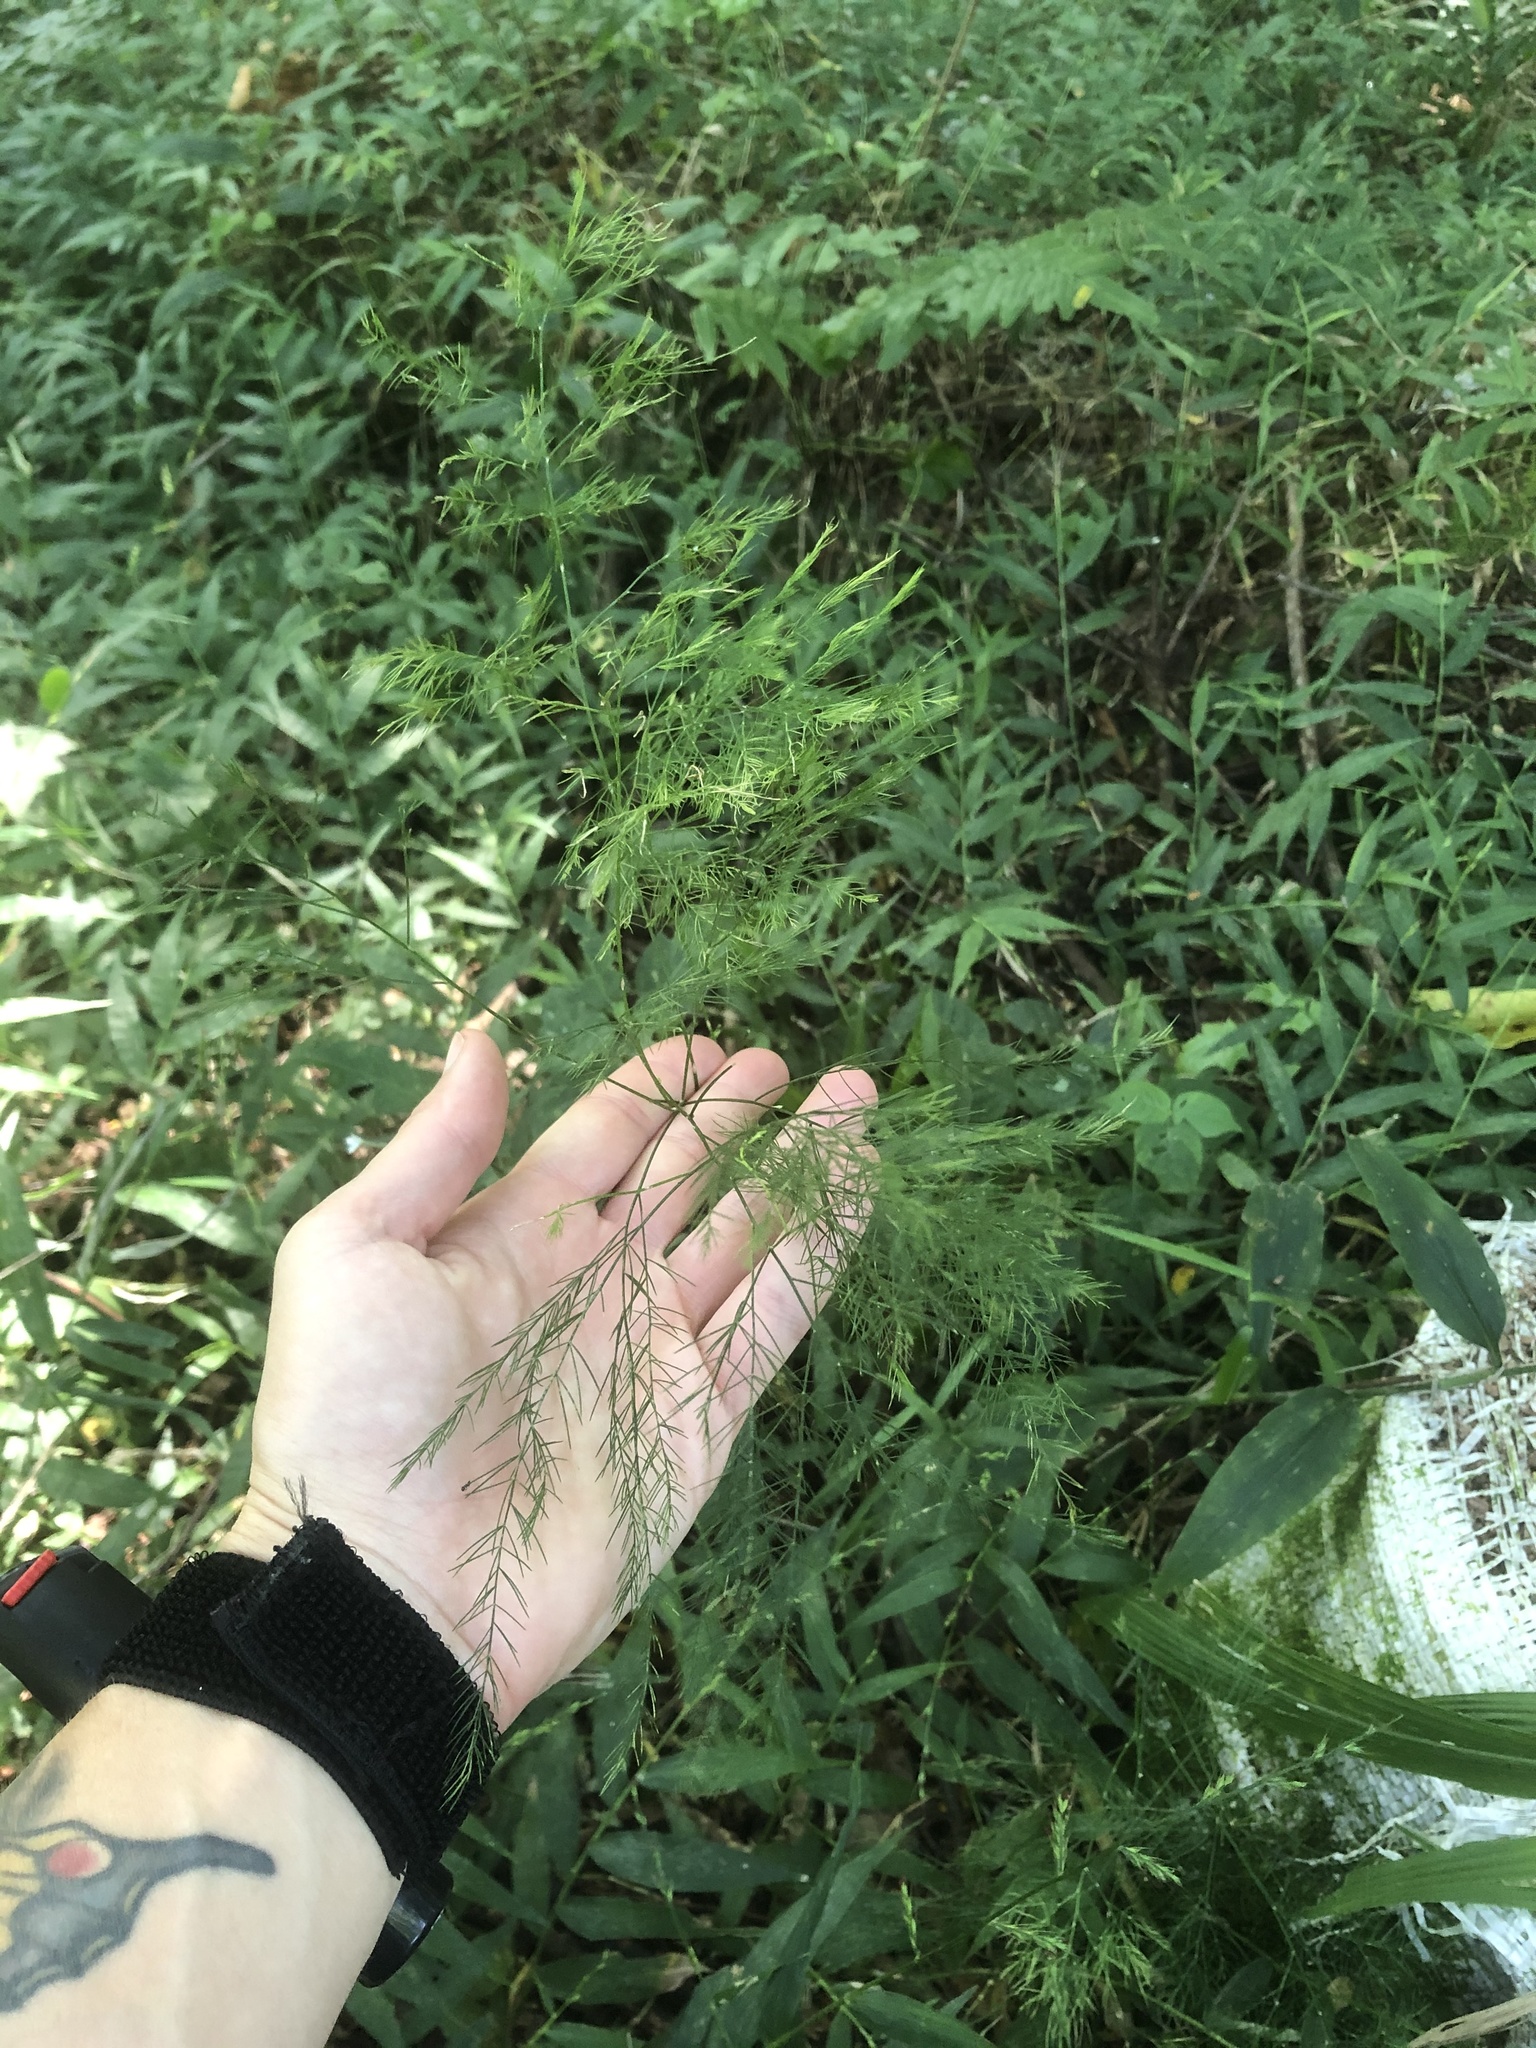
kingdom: Plantae
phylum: Tracheophyta
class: Liliopsida
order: Asparagales
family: Asparagaceae
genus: Asparagus
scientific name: Asparagus setaceus
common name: Common asparagus fern
